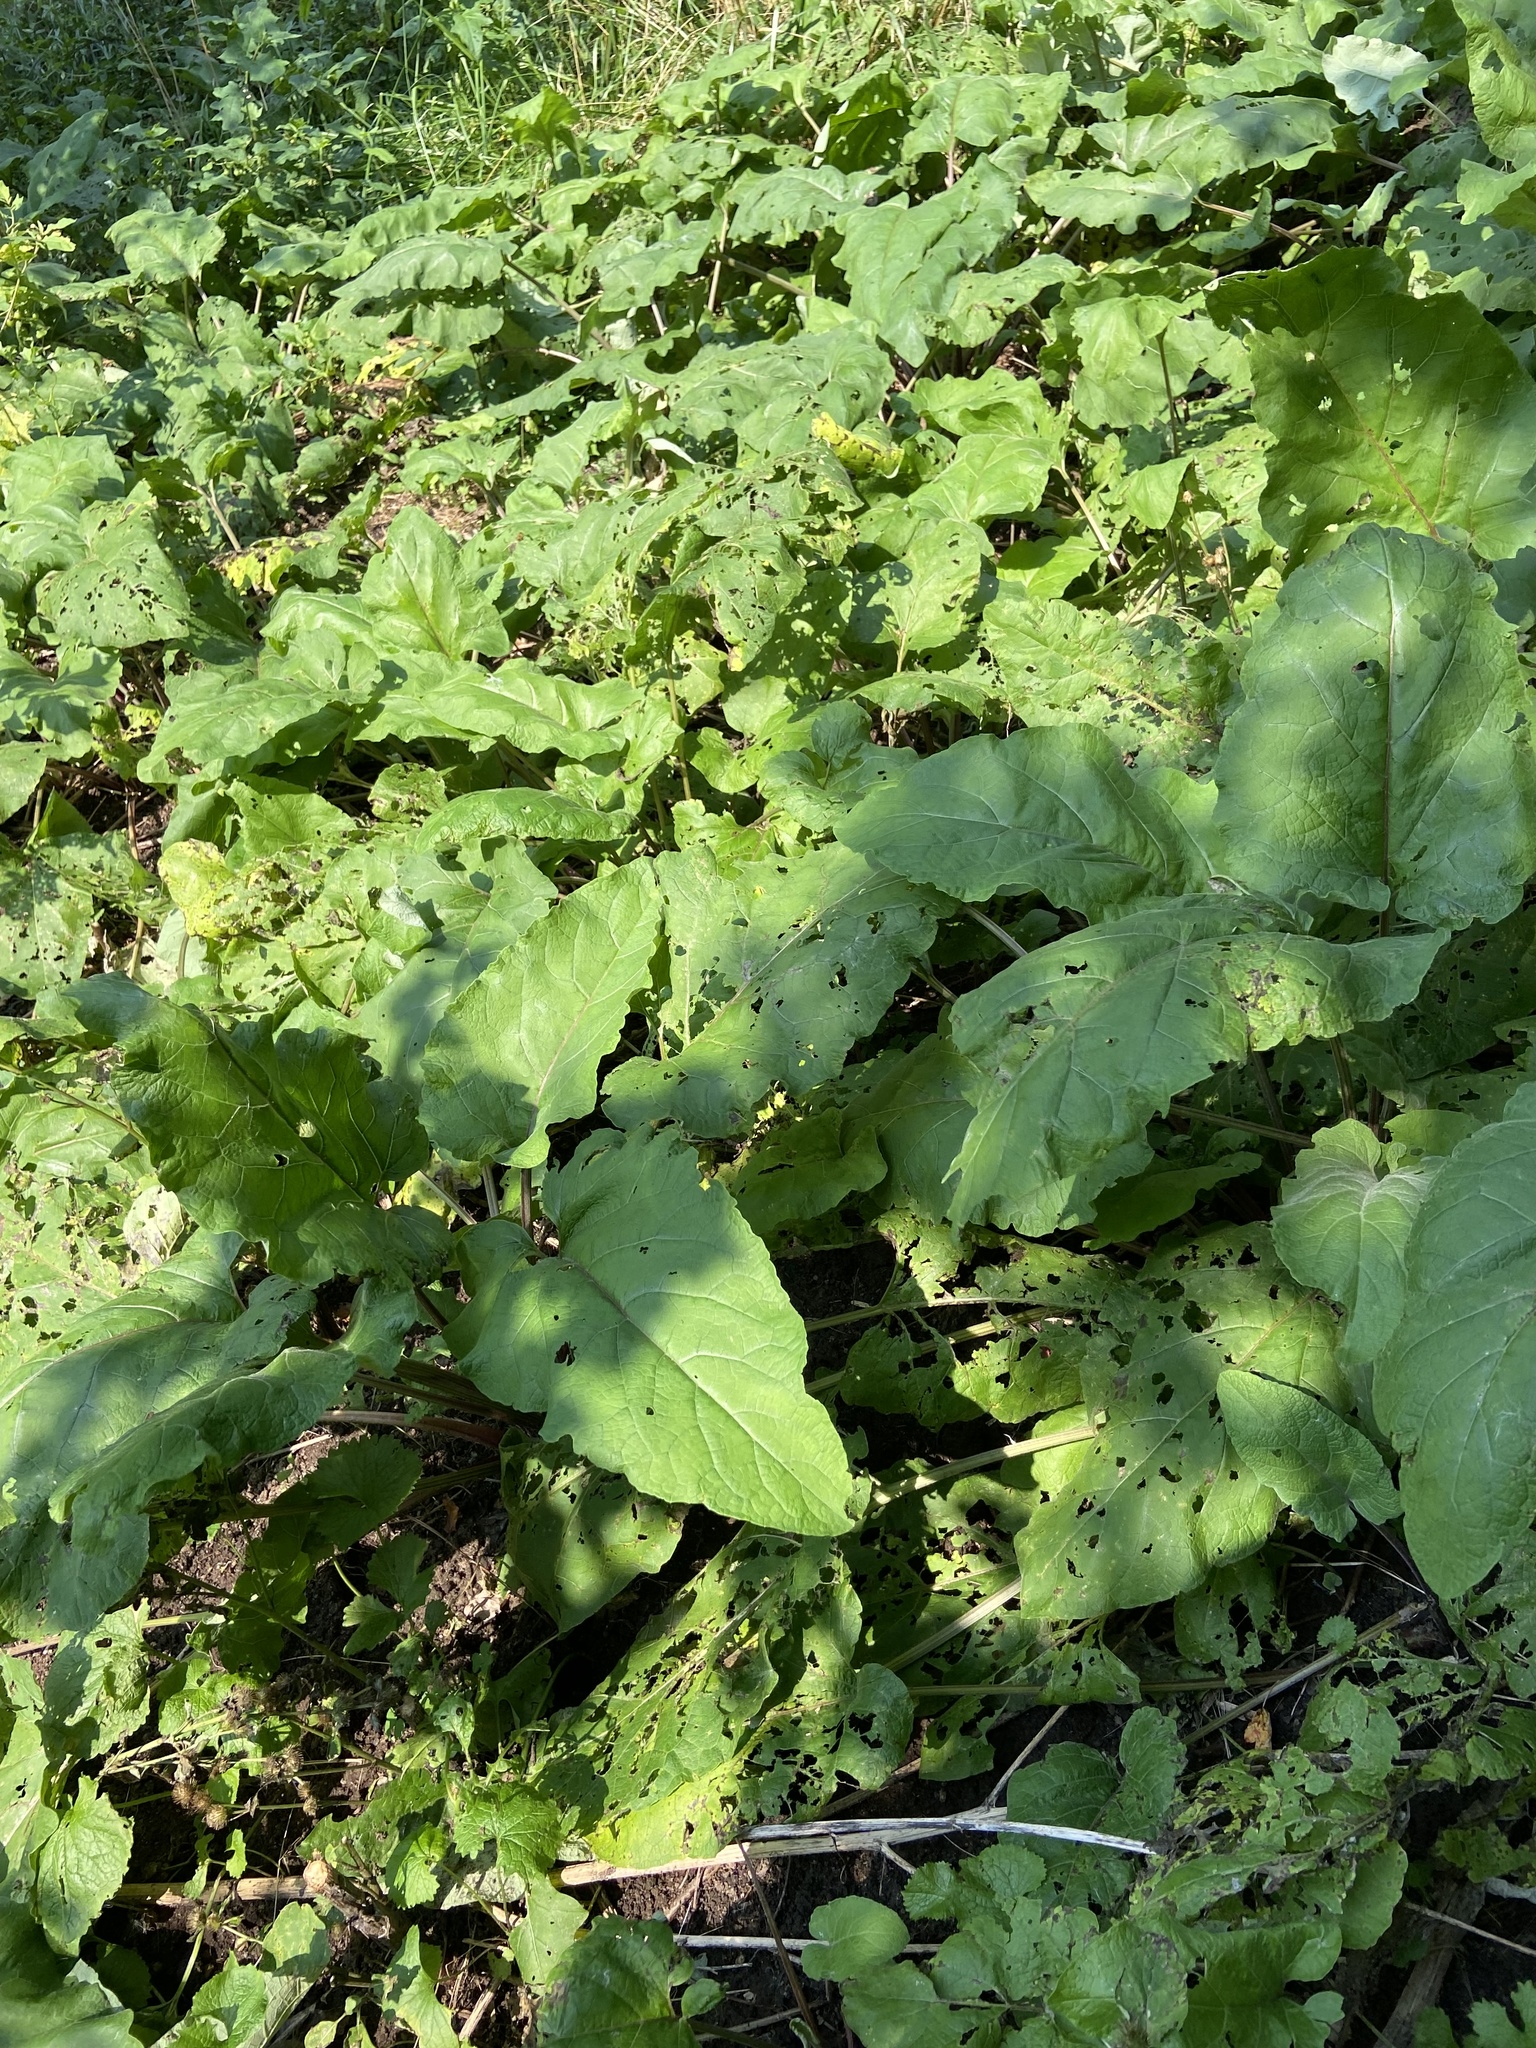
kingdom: Plantae
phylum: Tracheophyta
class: Magnoliopsida
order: Asterales
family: Asteraceae
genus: Arctium
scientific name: Arctium minus
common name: Lesser burdock
